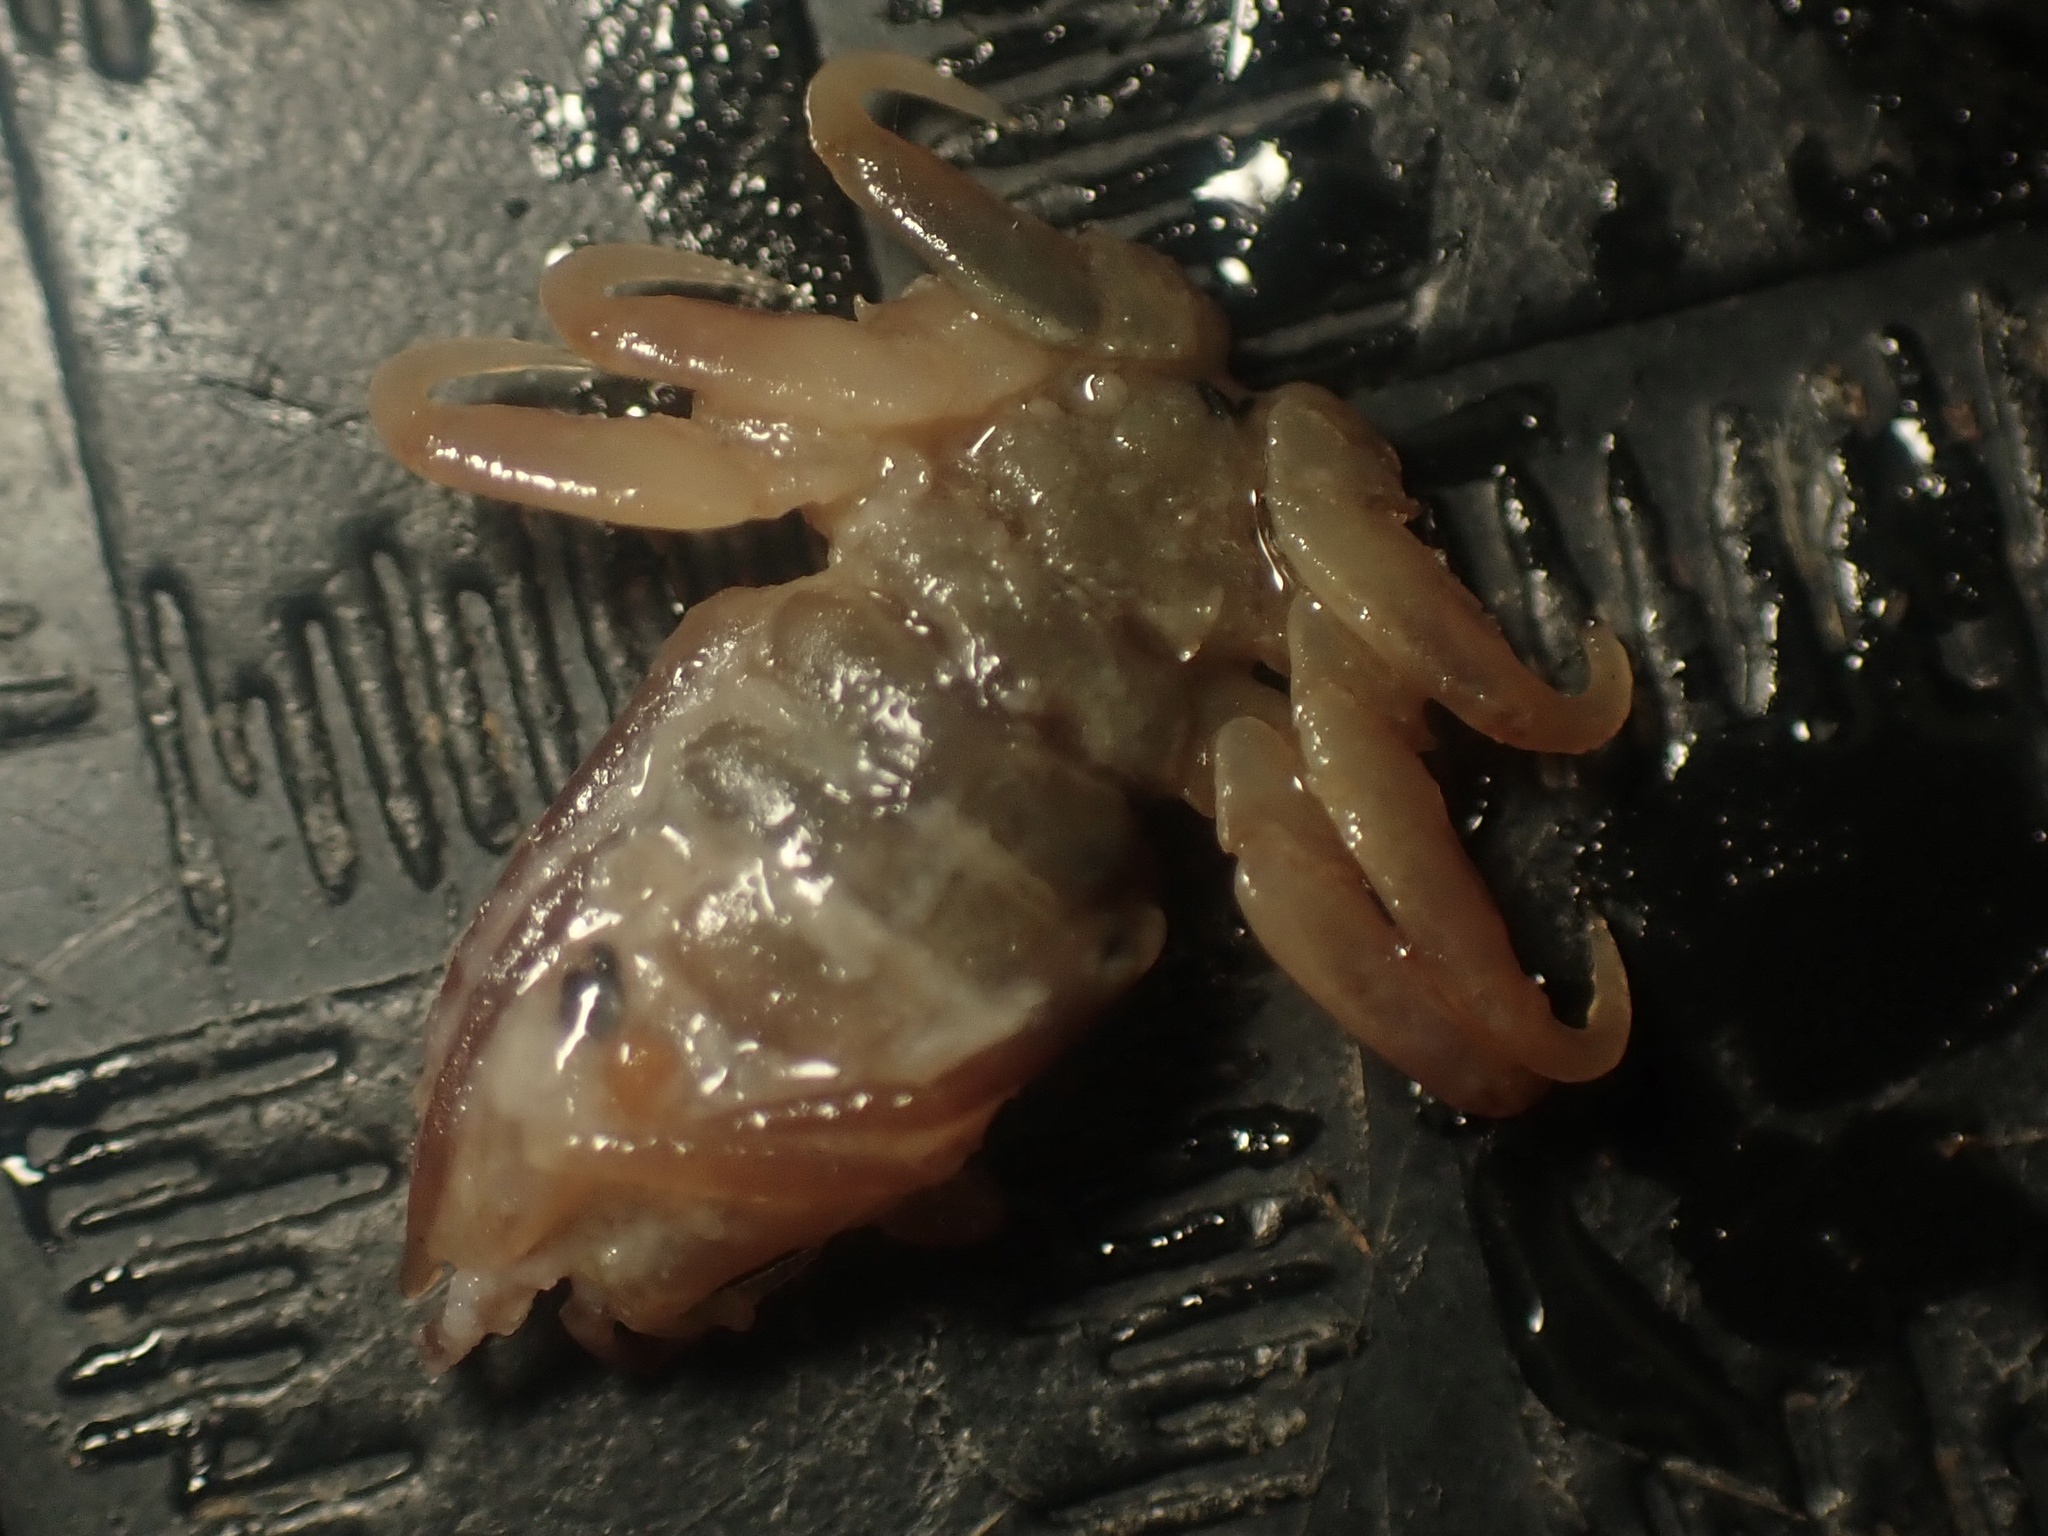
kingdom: Animalia
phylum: Arthropoda
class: Malacostraca
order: Amphipoda
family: Cyamidae
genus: Cyamus
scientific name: Cyamus boopis
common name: Whale-louse
